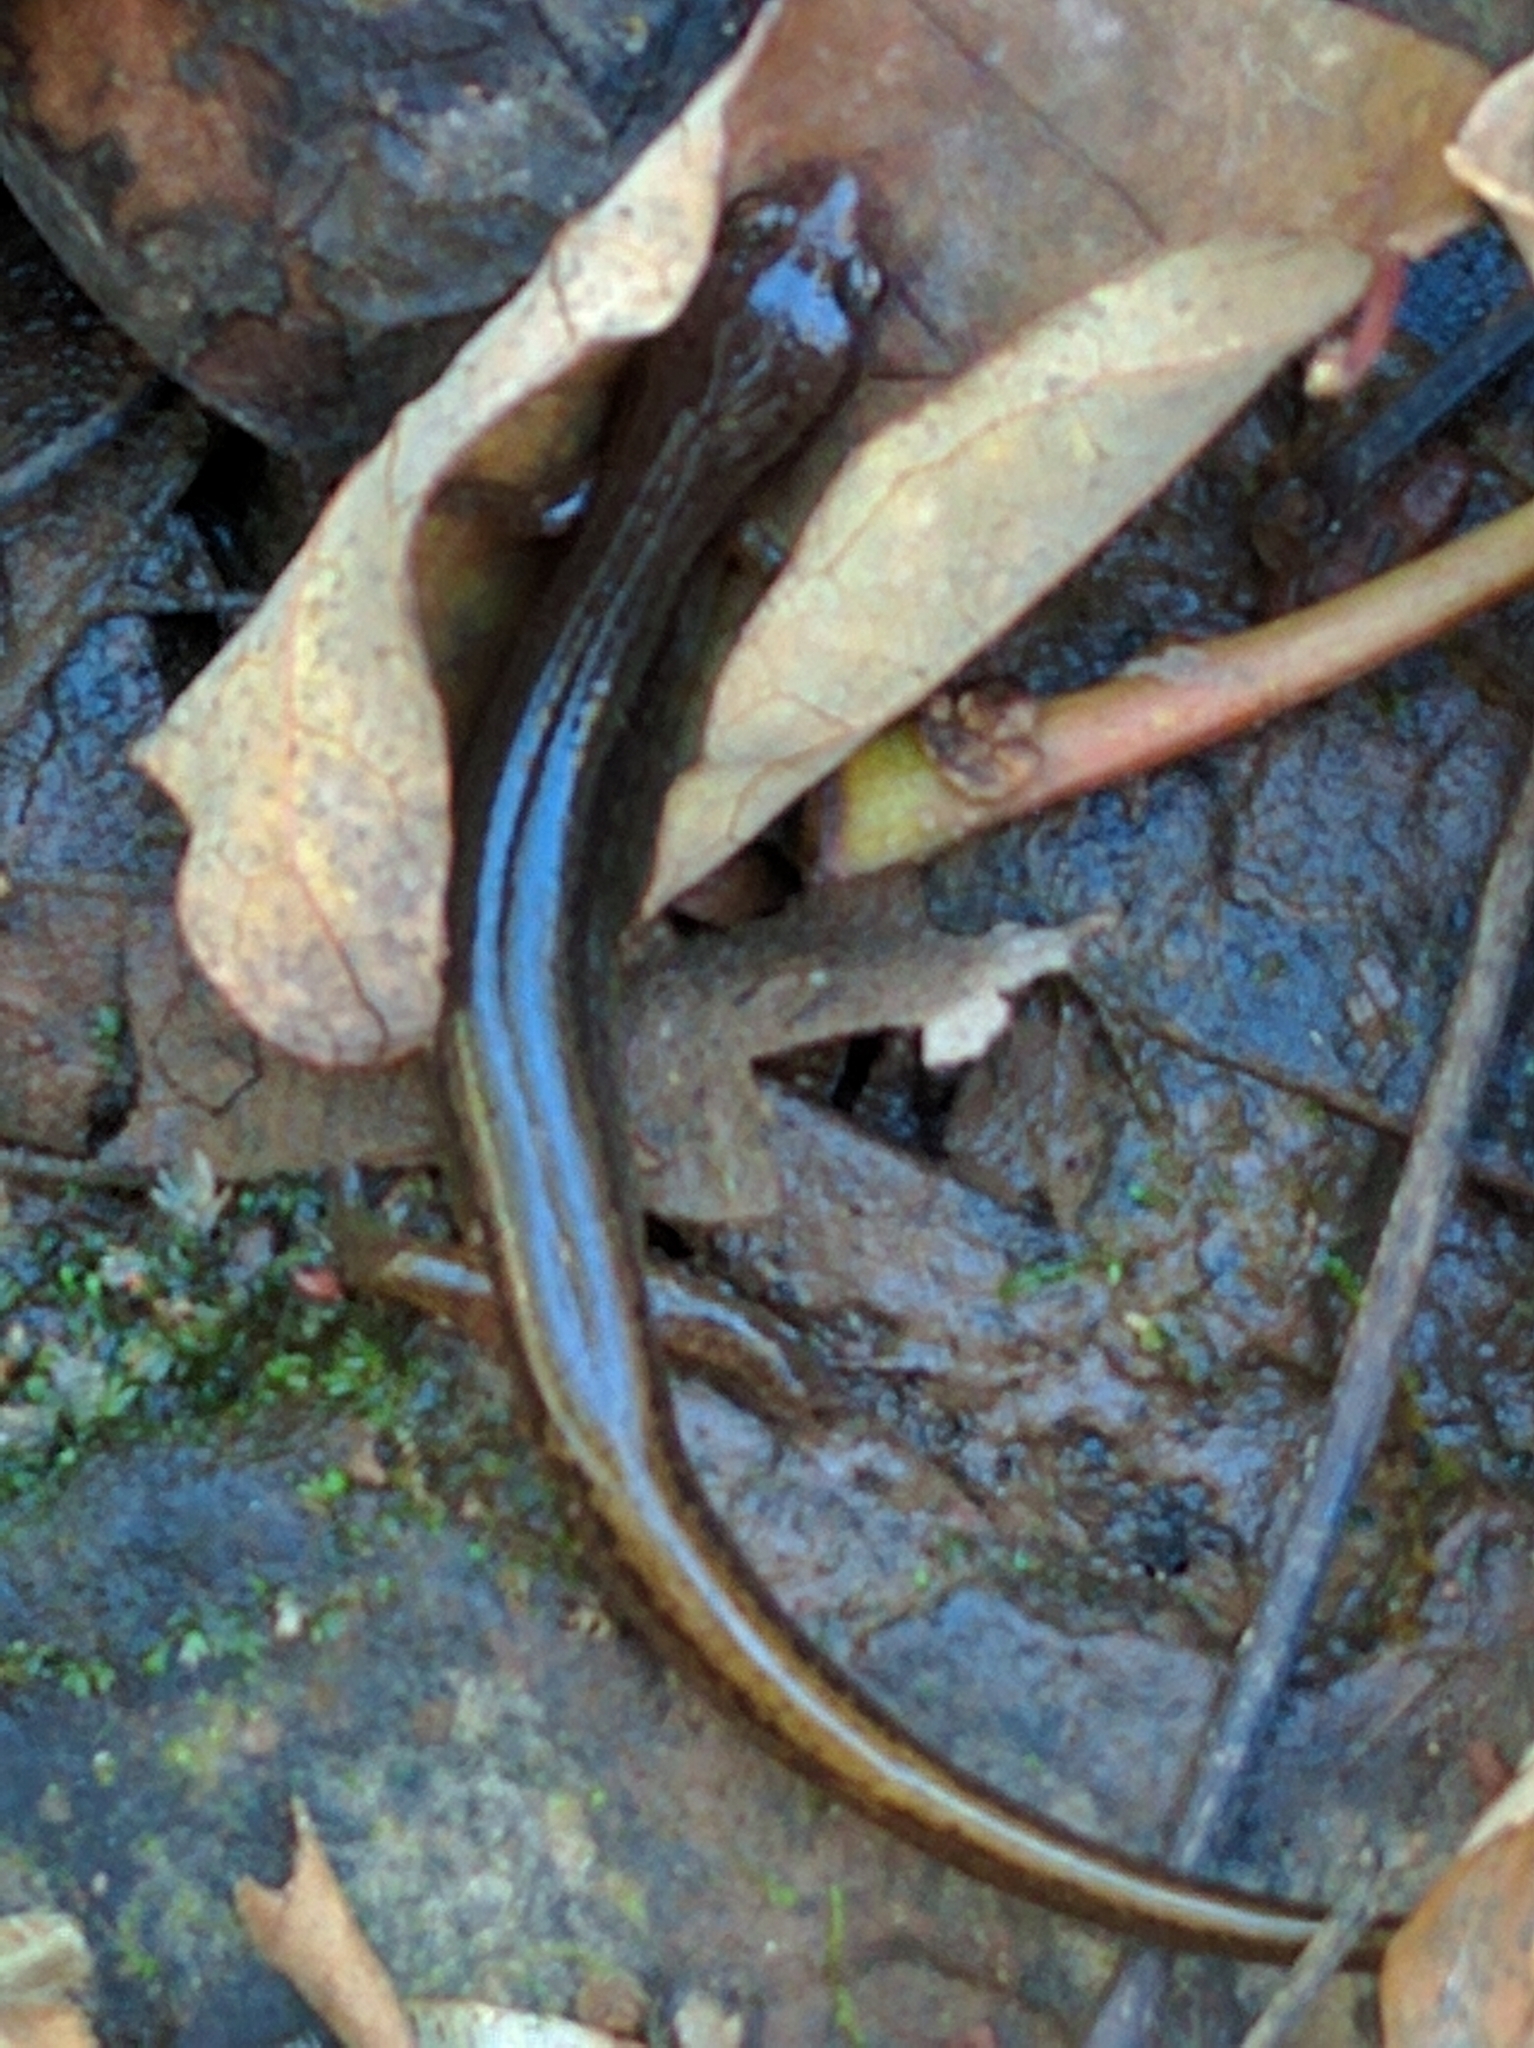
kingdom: Animalia
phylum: Chordata
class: Amphibia
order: Caudata
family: Plethodontidae
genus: Eurycea
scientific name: Eurycea bislineata
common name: Northern two-lined salamander
